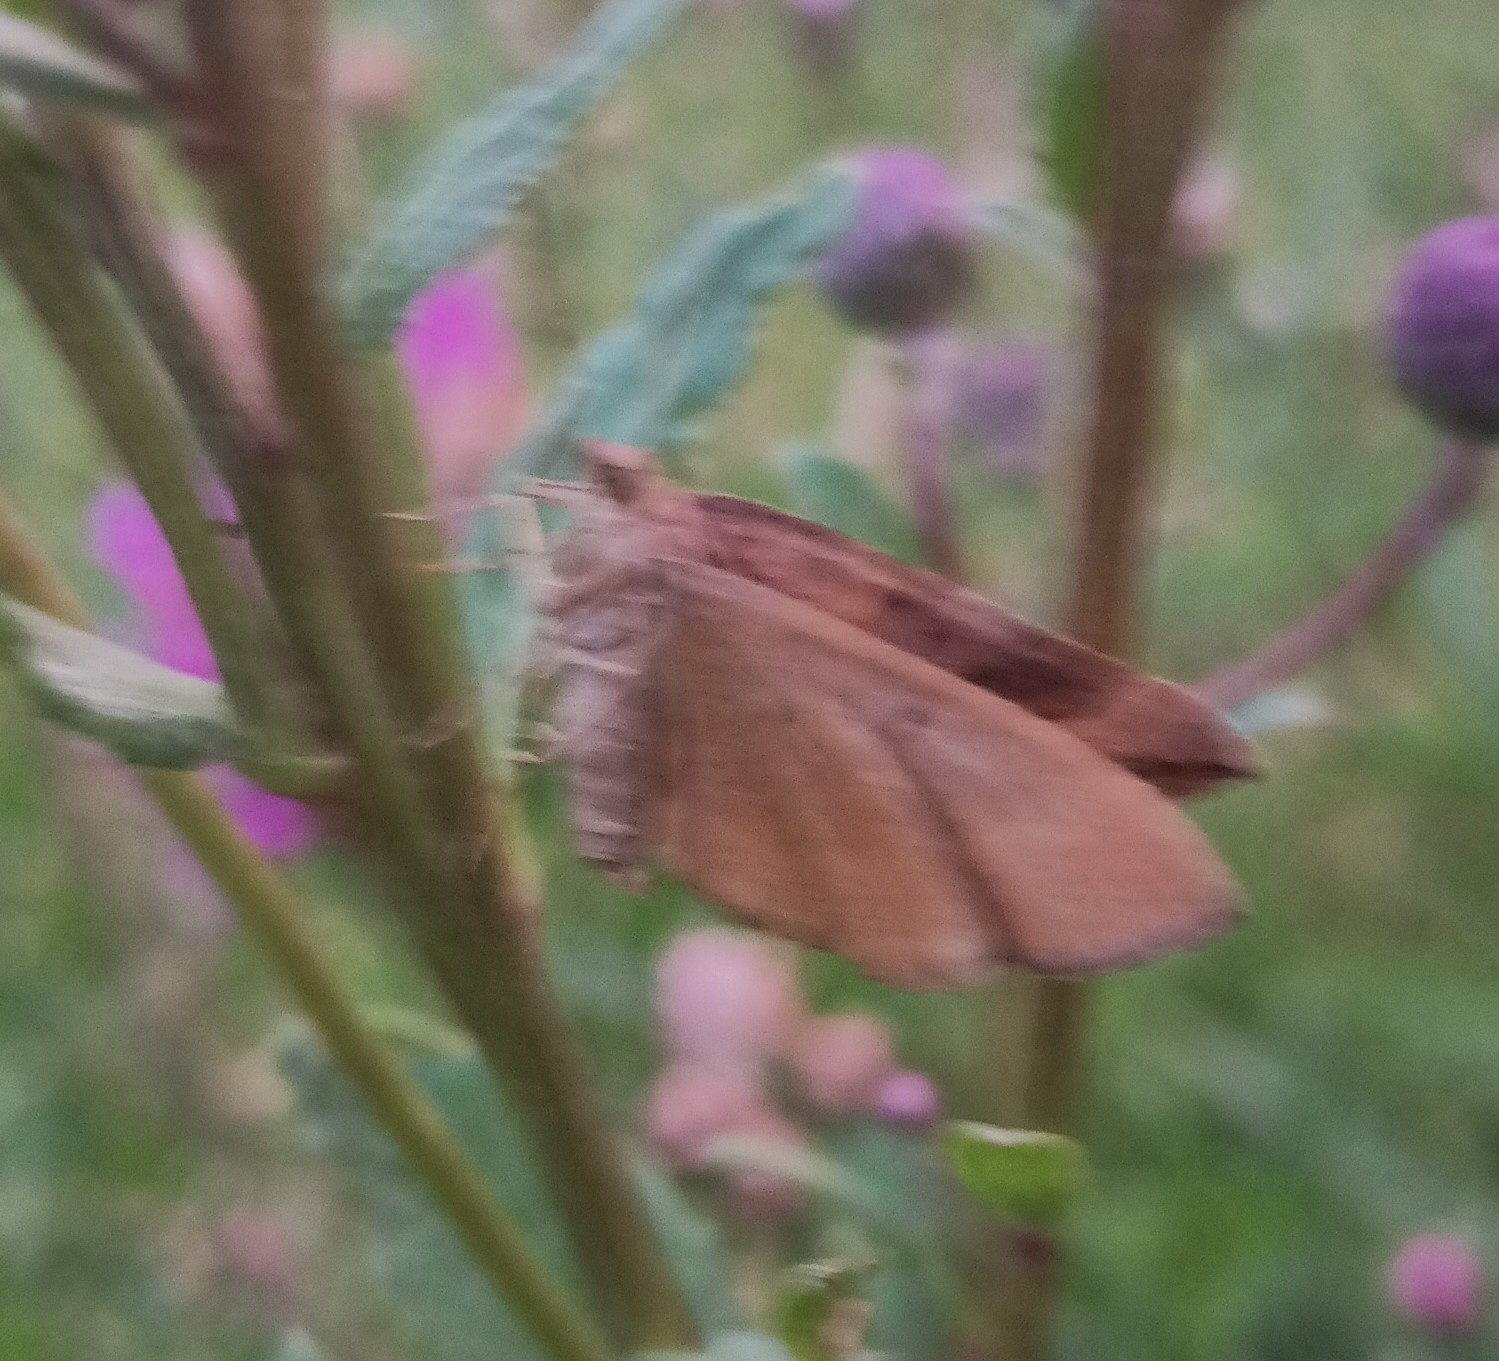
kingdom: Animalia
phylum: Arthropoda
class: Insecta
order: Lepidoptera
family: Geometridae
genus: Scotopteryx
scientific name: Scotopteryx chenopodiata
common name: Shaded broad-bar
